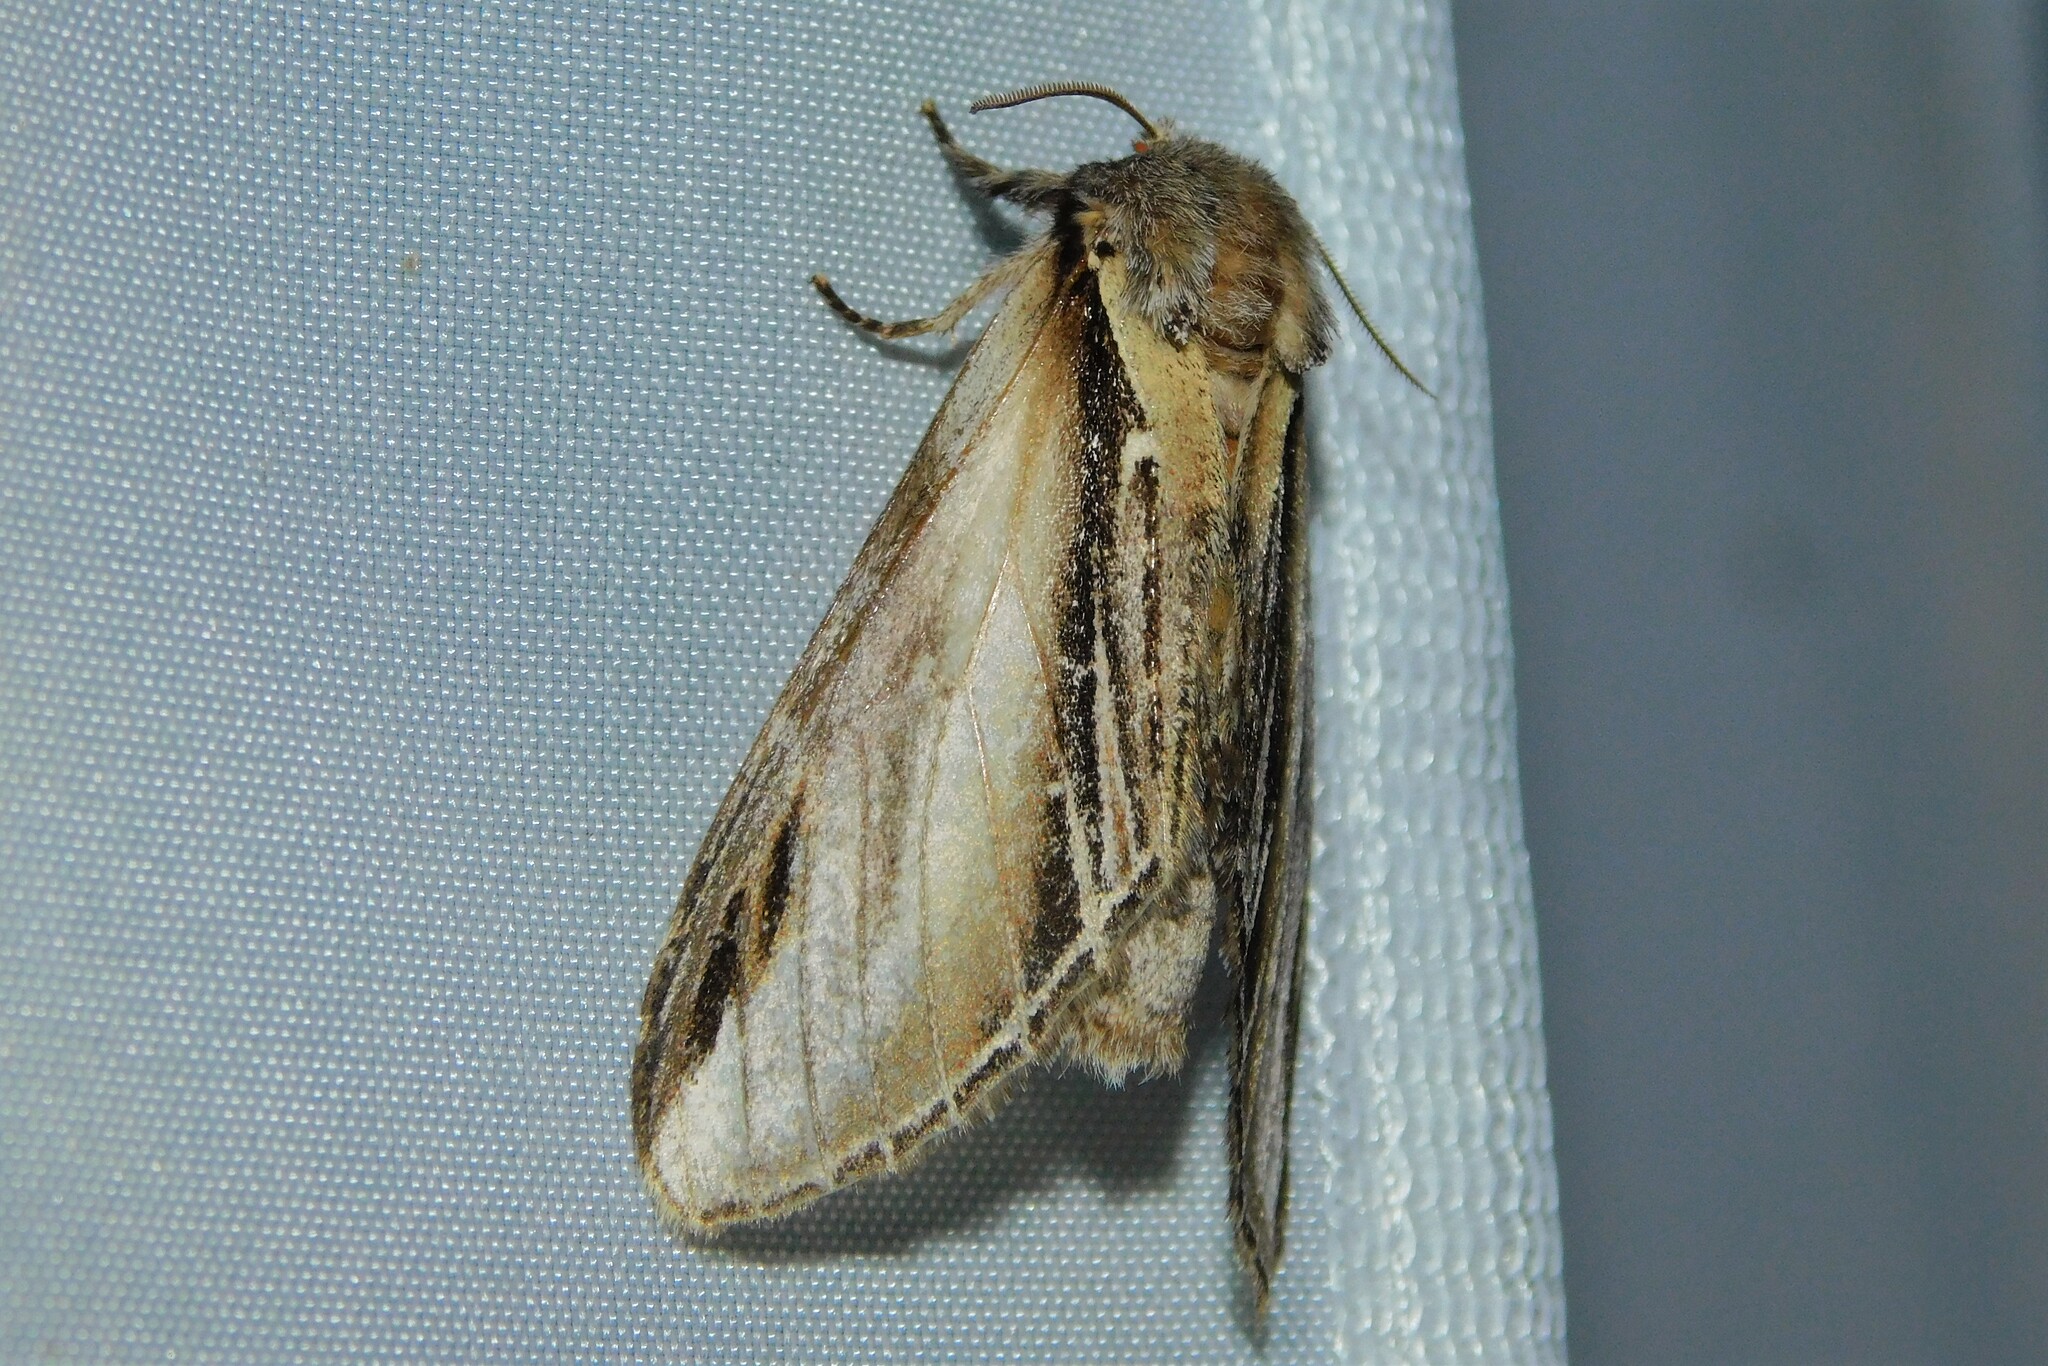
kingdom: Animalia
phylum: Arthropoda
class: Insecta
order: Lepidoptera
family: Notodontidae
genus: Pheosia
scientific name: Pheosia tremula
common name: Swallow prominent
